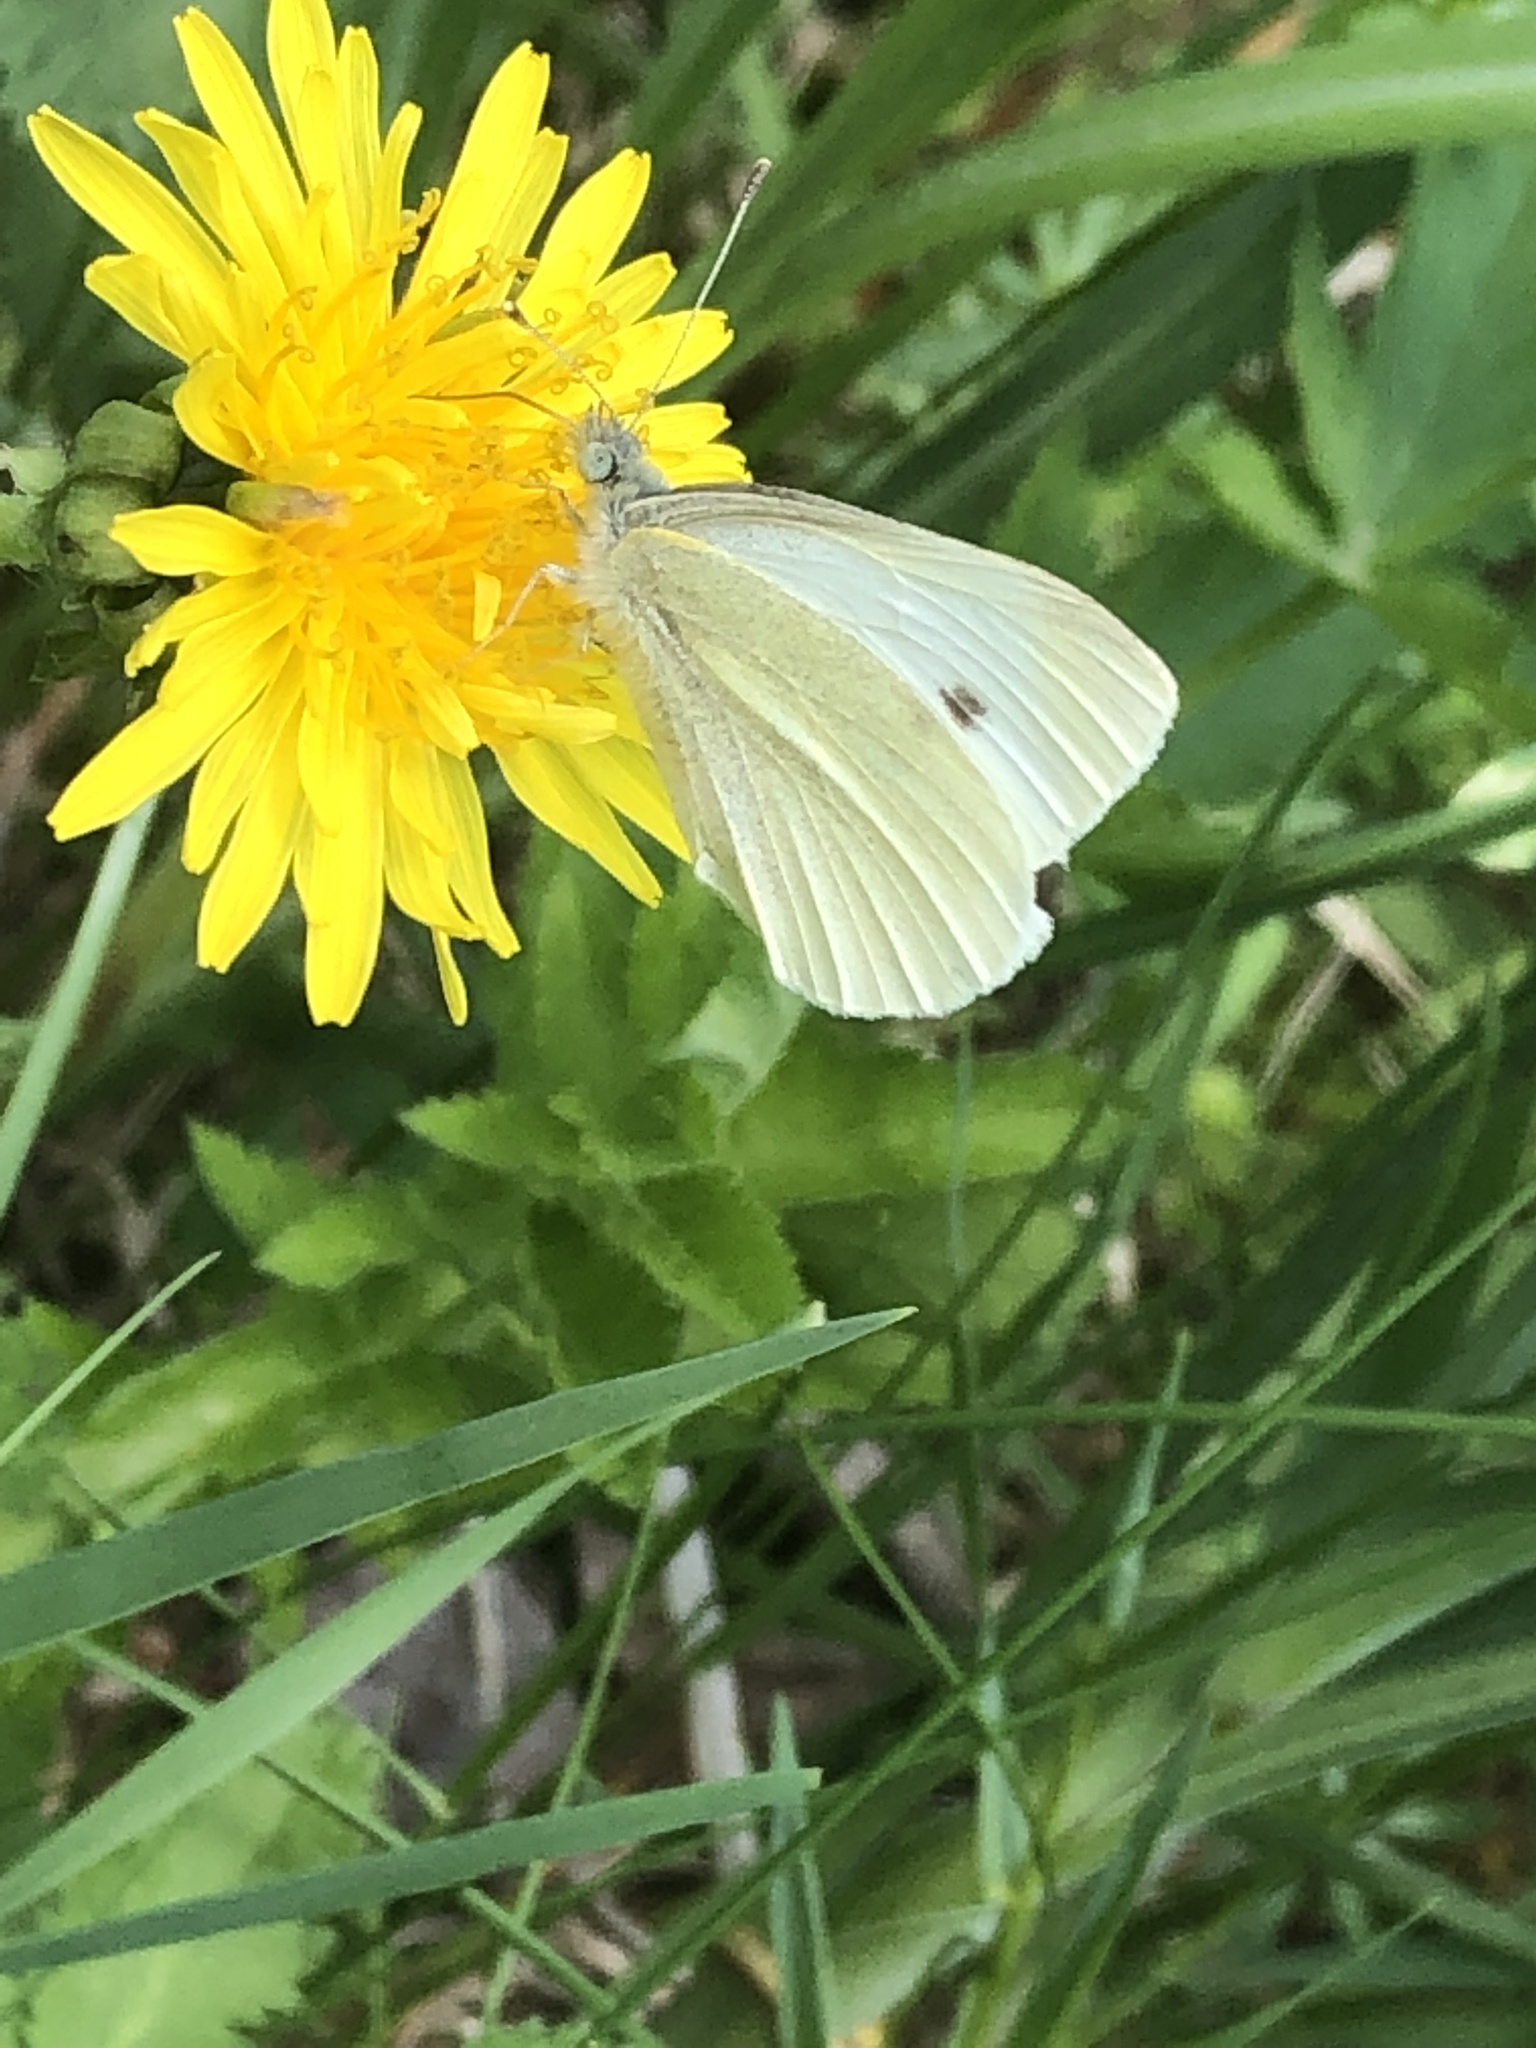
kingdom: Animalia
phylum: Arthropoda
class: Insecta
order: Lepidoptera
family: Pieridae
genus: Pieris
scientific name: Pieris rapae
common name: Small white
